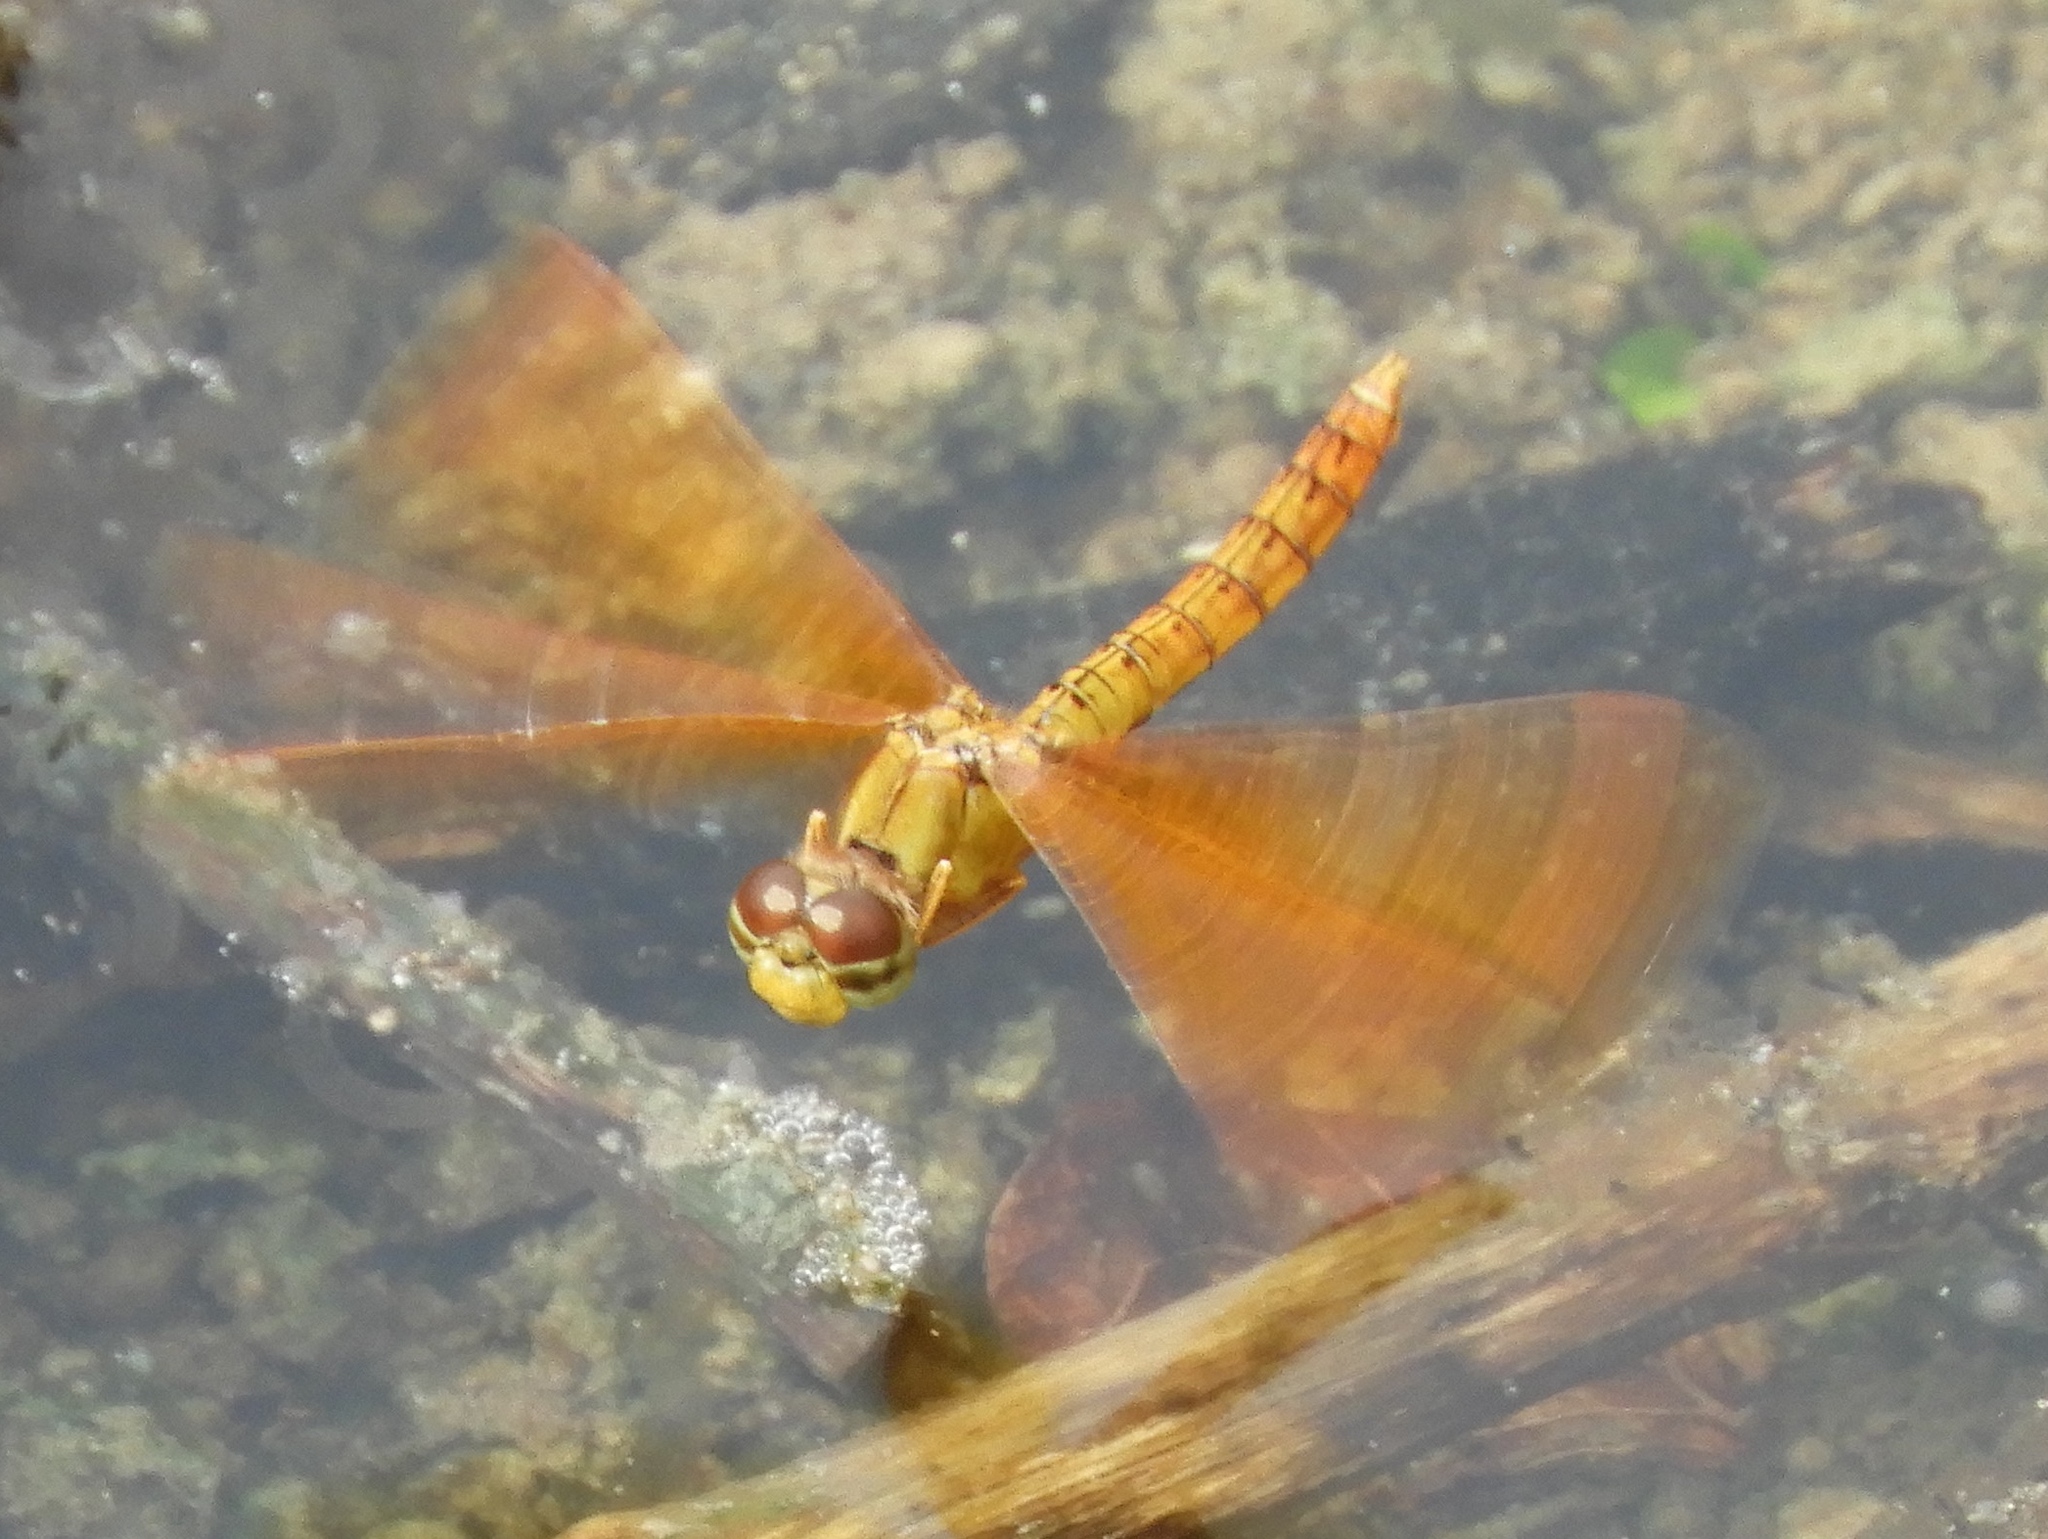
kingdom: Animalia
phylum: Arthropoda
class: Insecta
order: Odonata
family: Libellulidae
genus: Perithemis
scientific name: Perithemis intensa
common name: Mexican amberwing
